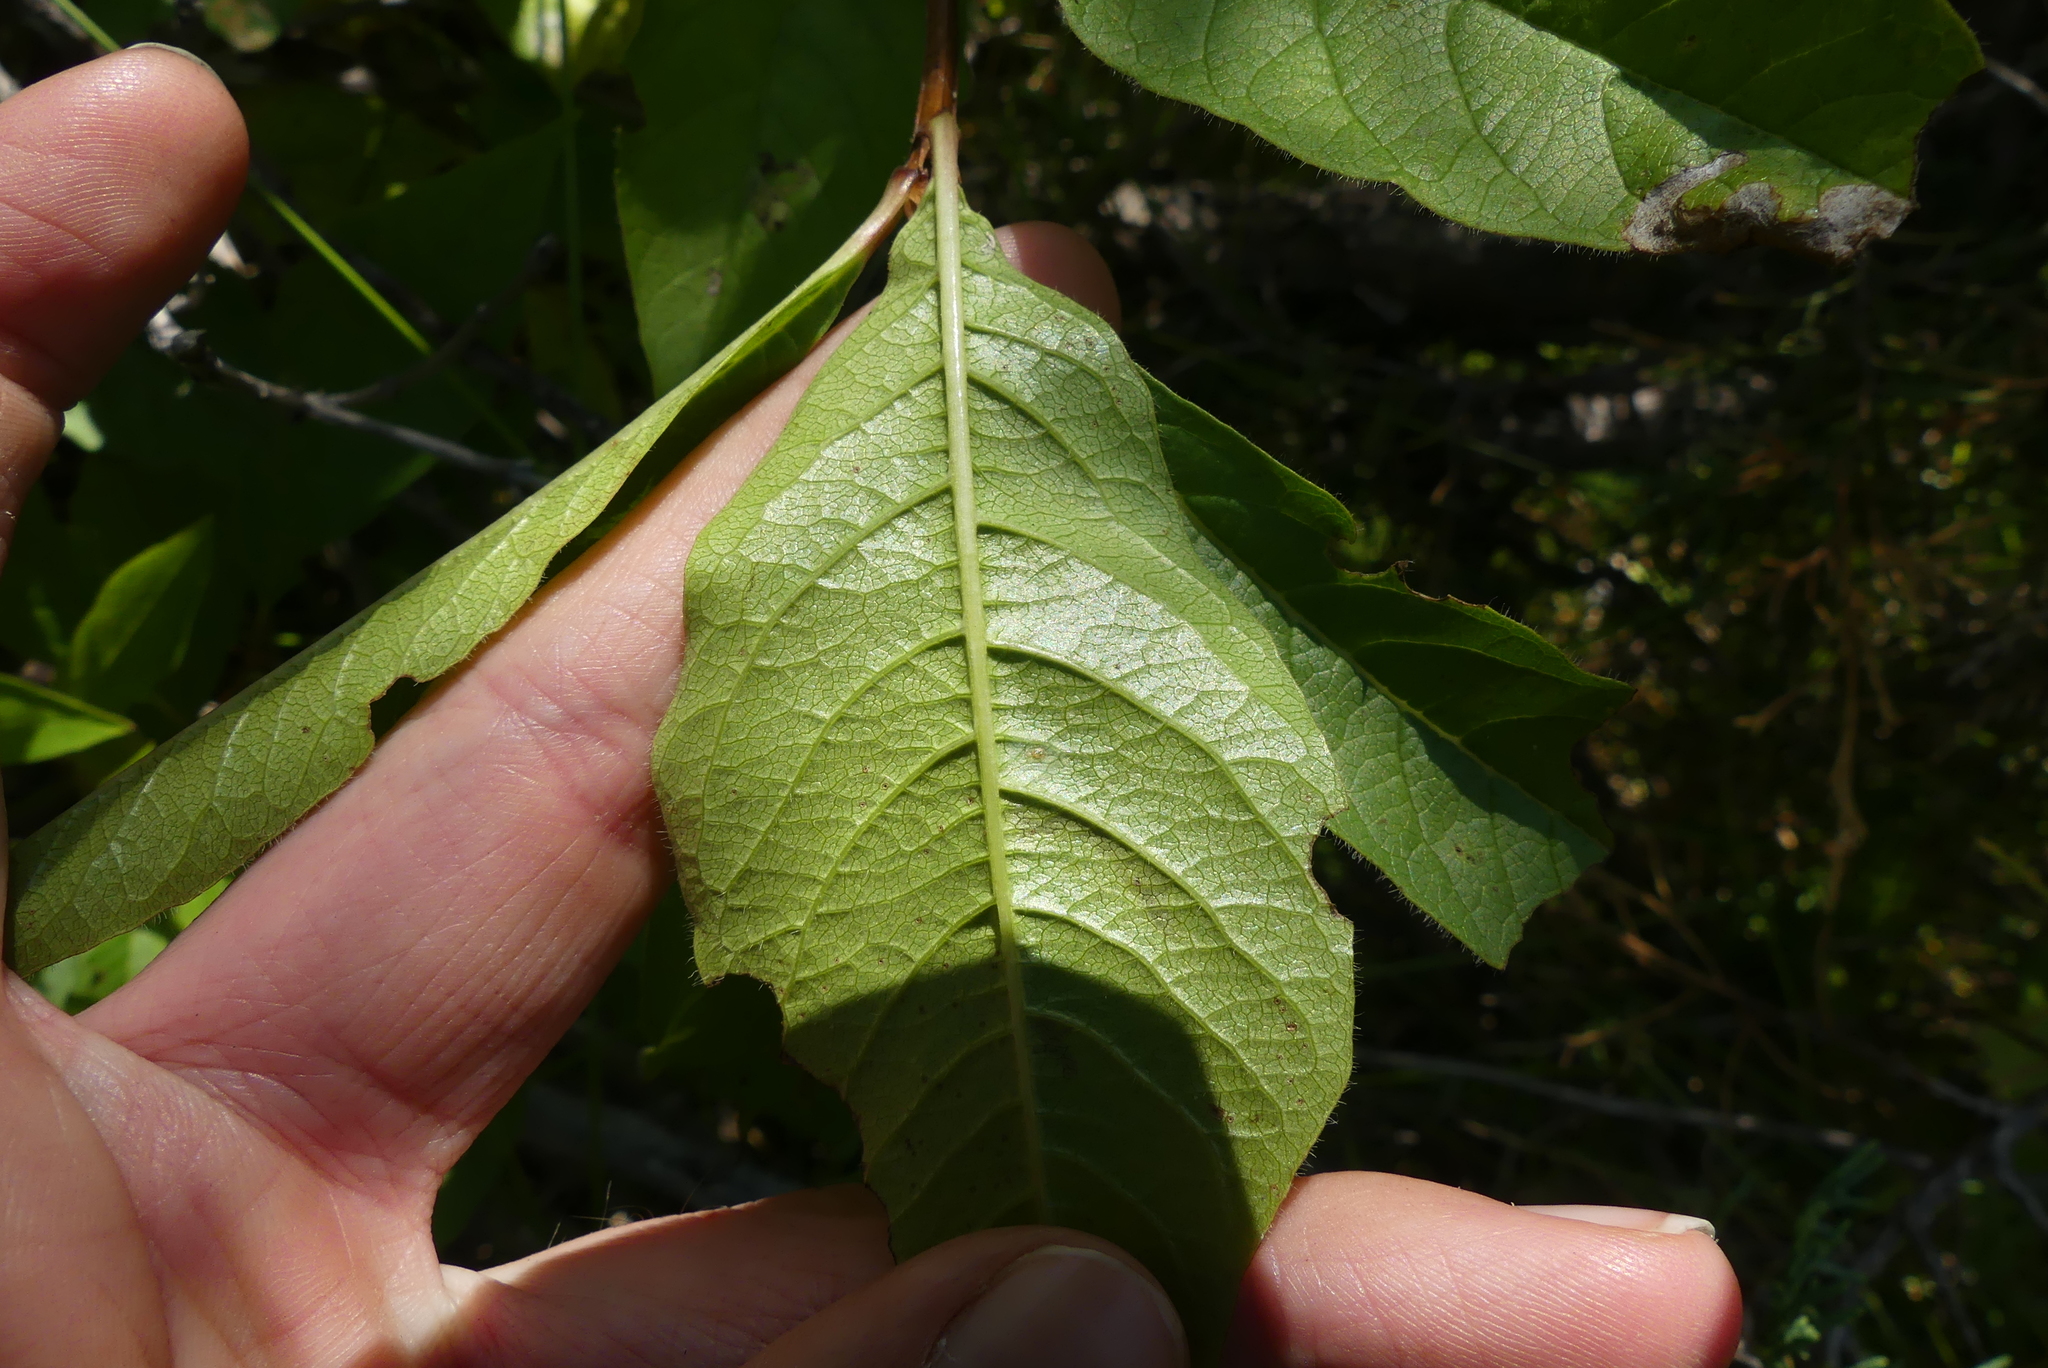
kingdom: Plantae
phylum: Tracheophyta
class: Magnoliopsida
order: Dipsacales
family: Caprifoliaceae
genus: Lonicera
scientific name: Lonicera involucrata
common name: Californian honeysuckle
